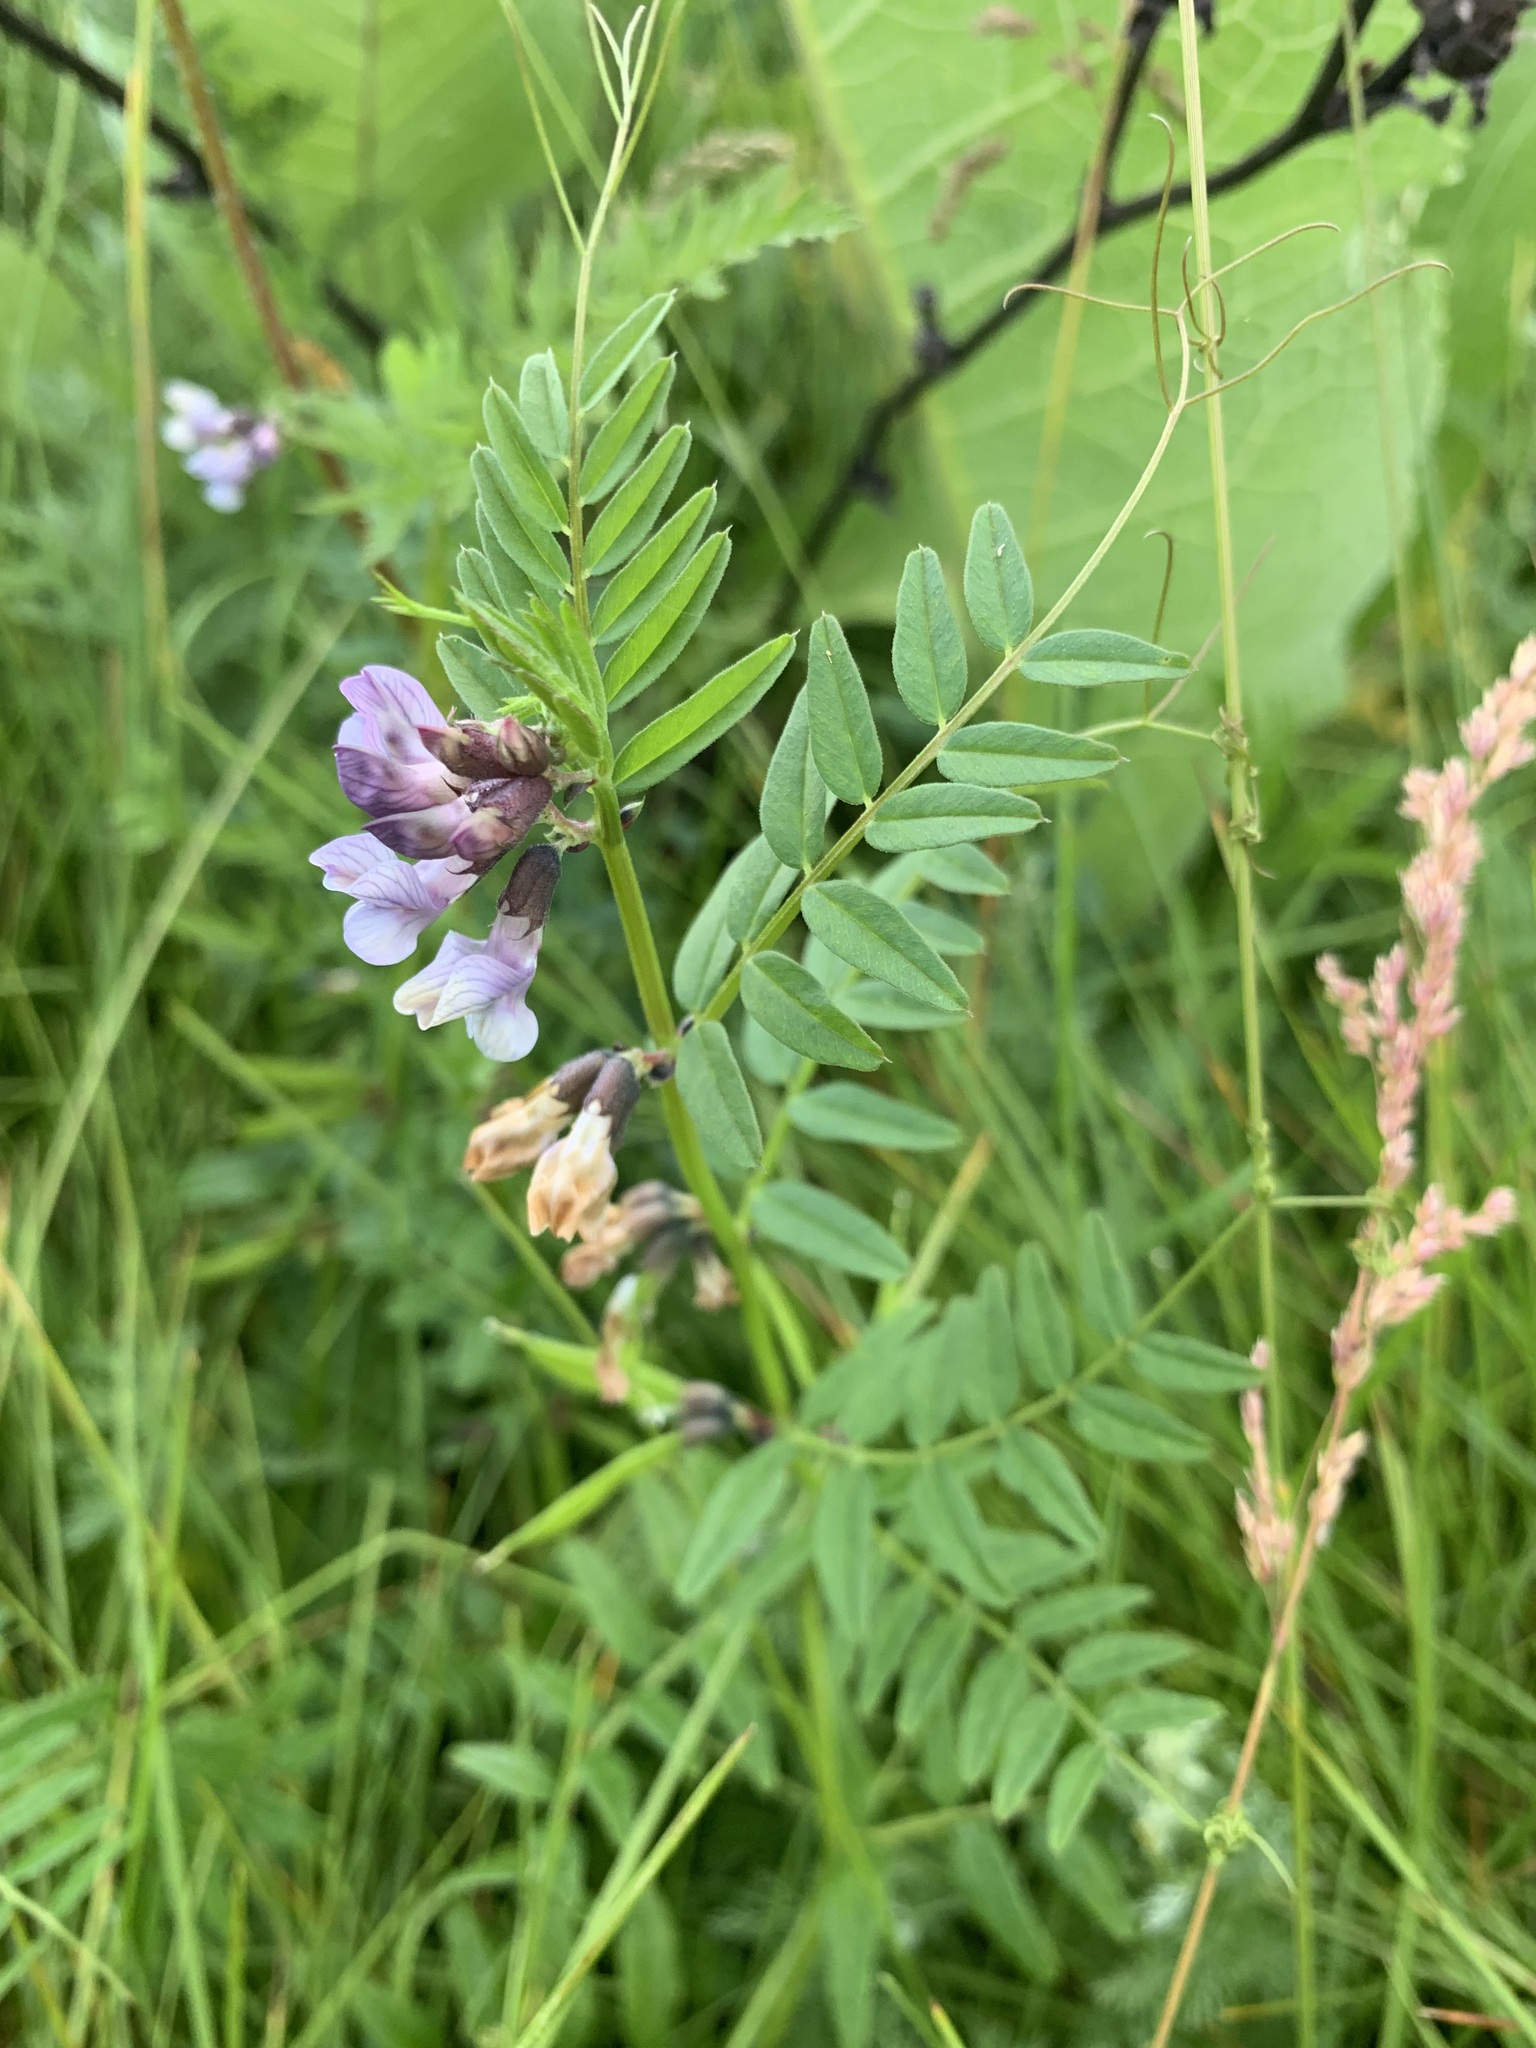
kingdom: Plantae
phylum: Tracheophyta
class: Magnoliopsida
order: Fabales
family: Fabaceae
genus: Vicia
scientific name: Vicia sepium
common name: Bush vetch
